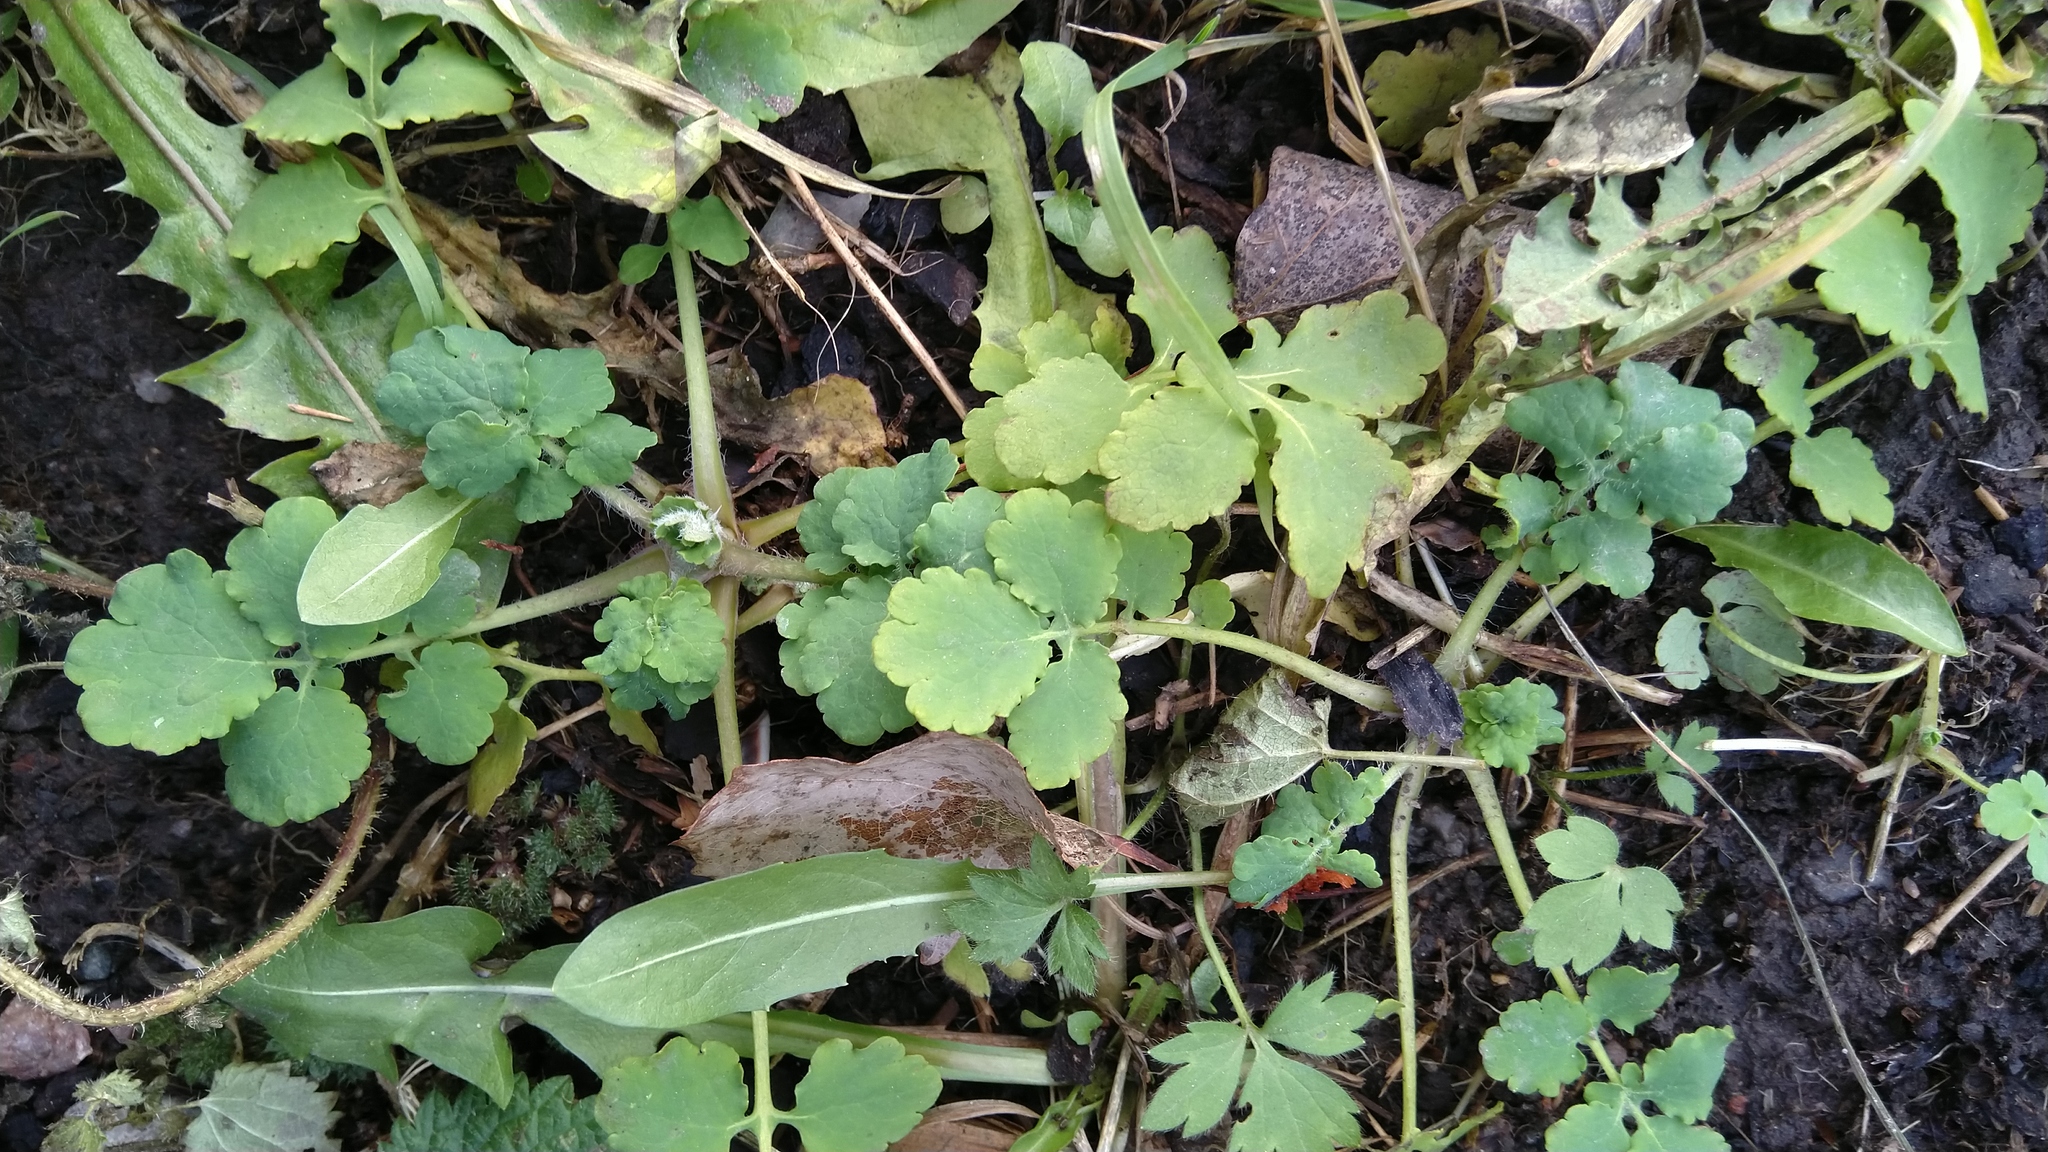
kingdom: Plantae
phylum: Tracheophyta
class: Magnoliopsida
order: Ranunculales
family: Papaveraceae
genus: Chelidonium
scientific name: Chelidonium majus
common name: Greater celandine
